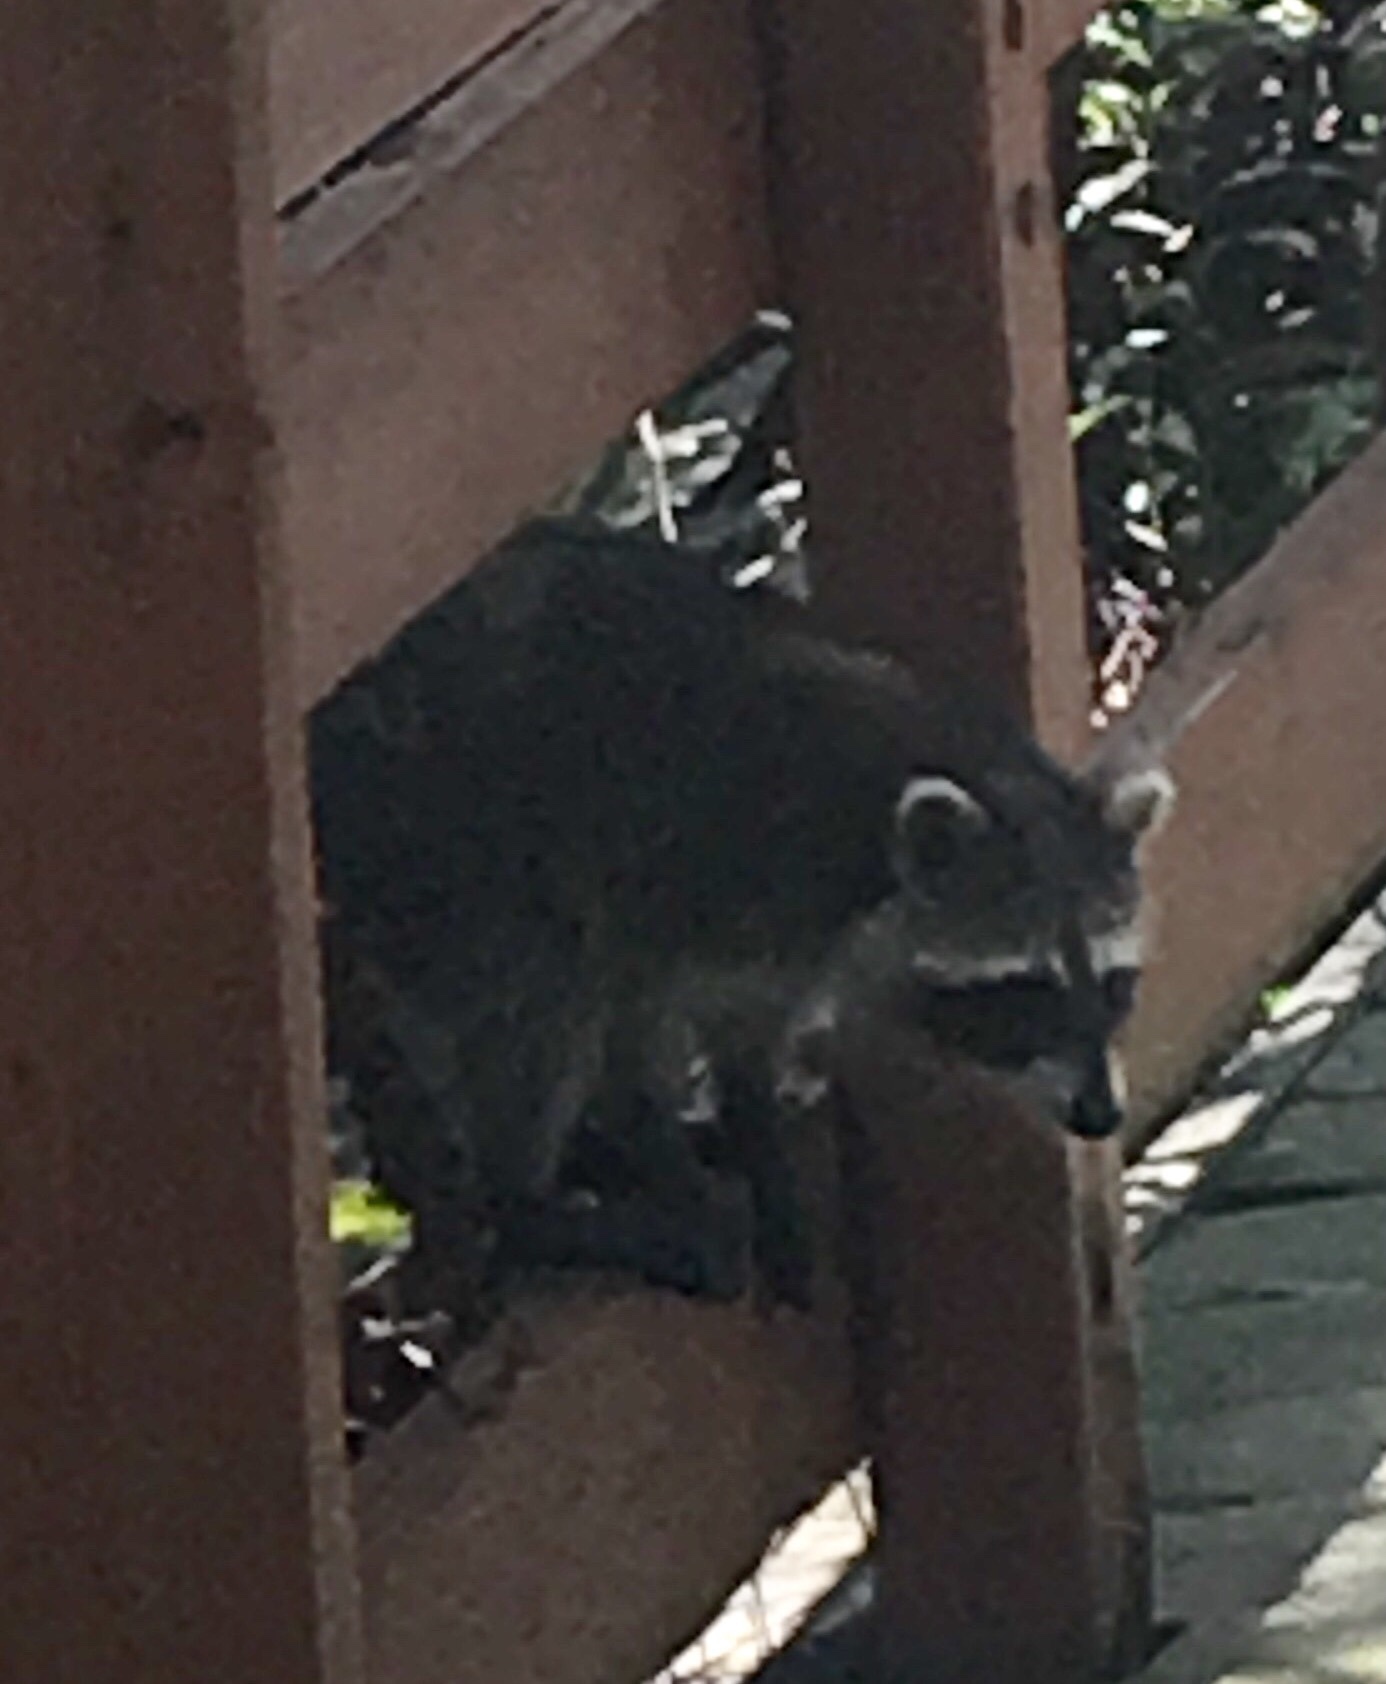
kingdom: Animalia
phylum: Chordata
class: Mammalia
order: Carnivora
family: Procyonidae
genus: Procyon
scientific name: Procyon lotor
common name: Raccoon
